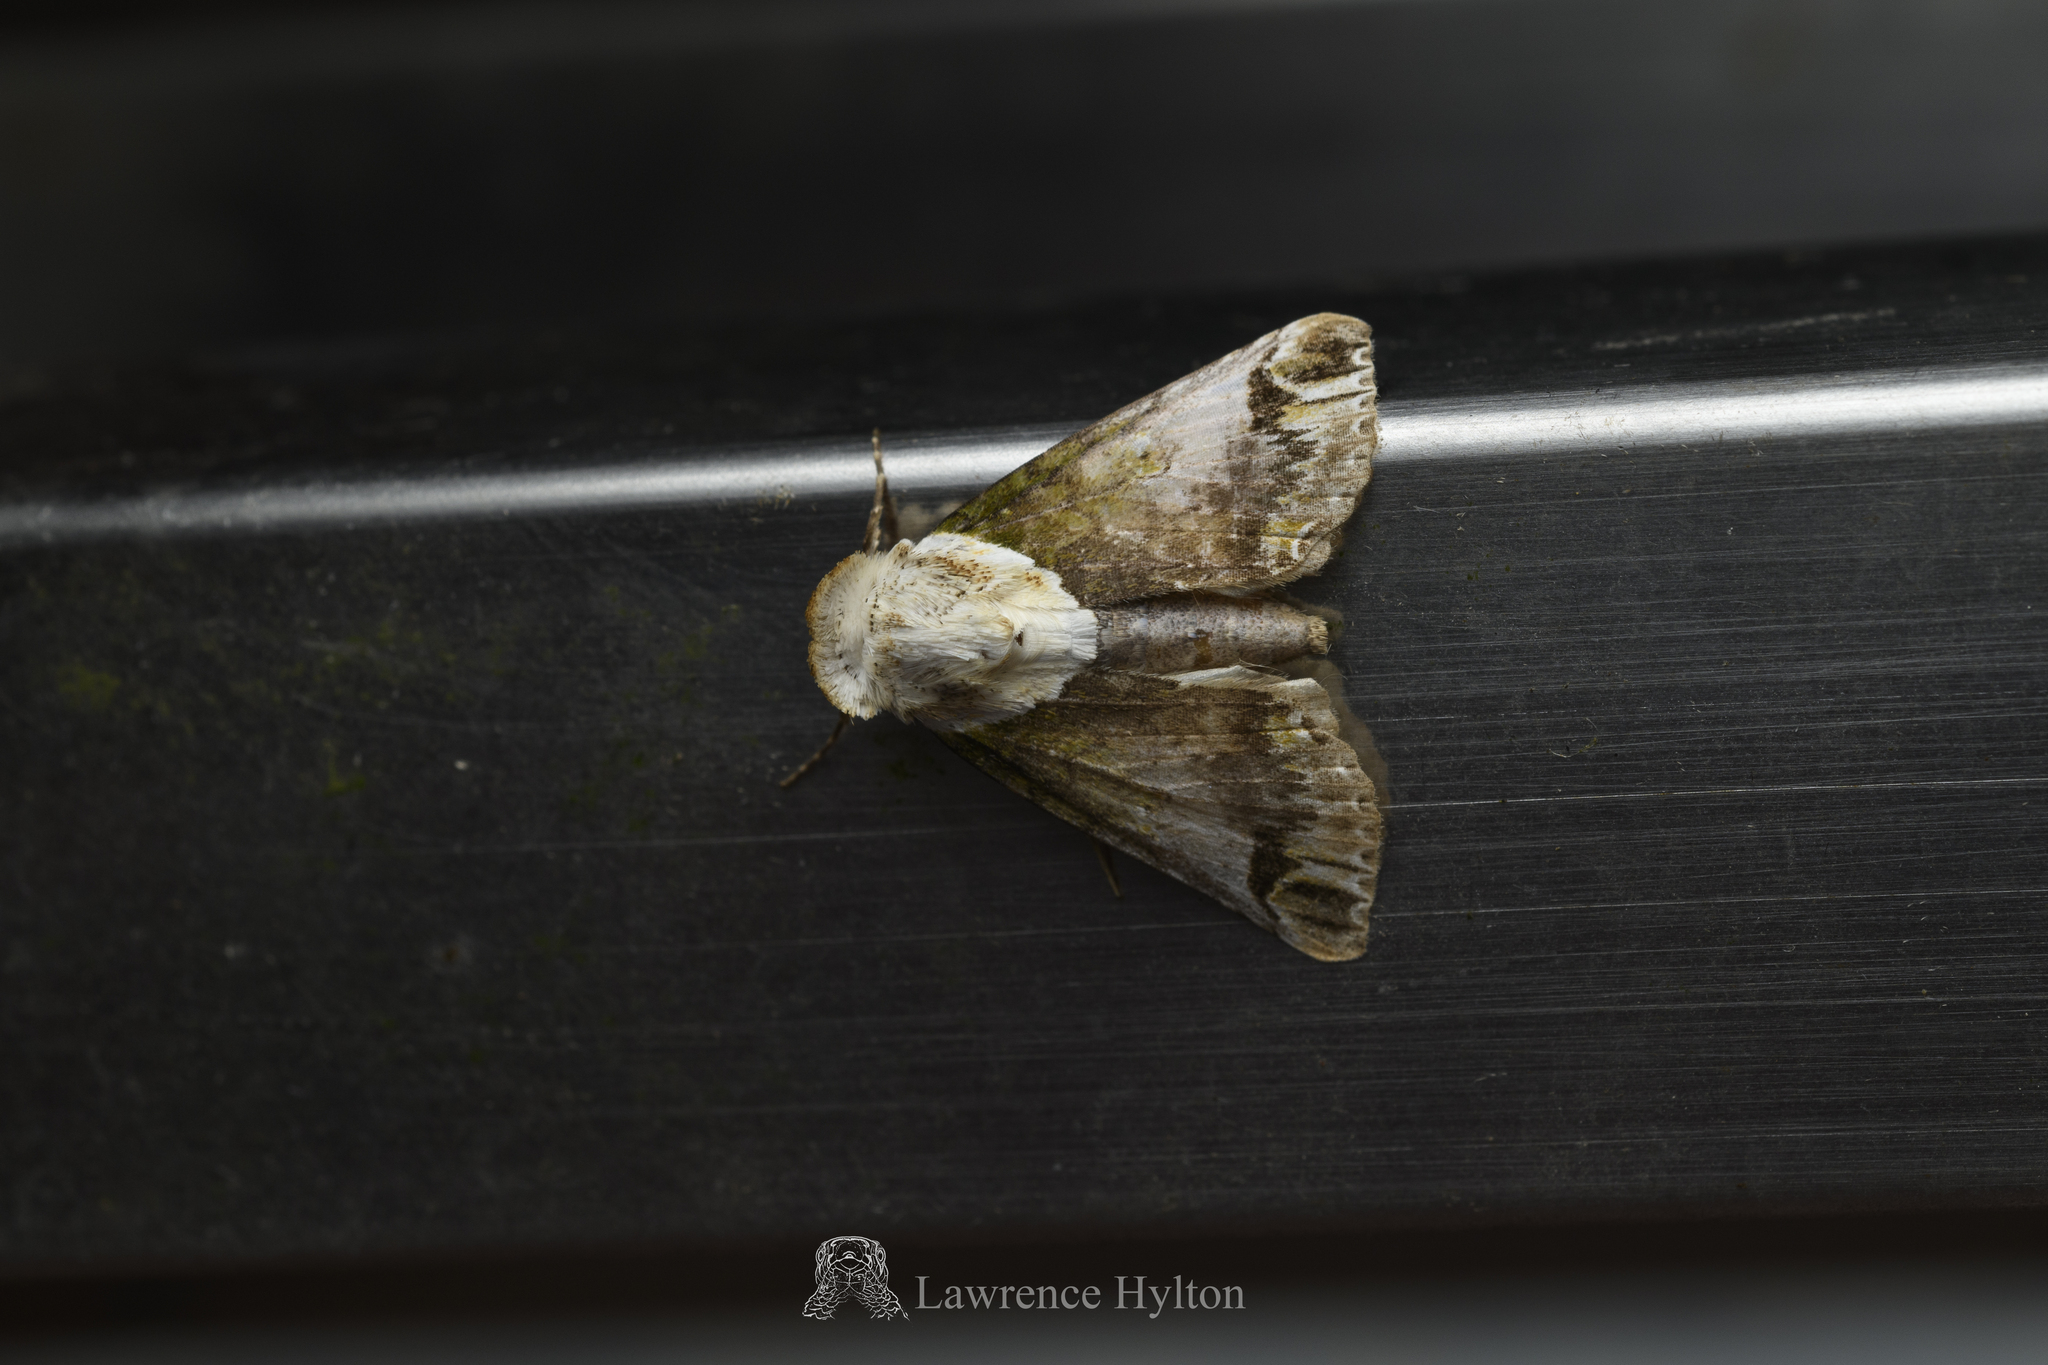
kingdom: Animalia
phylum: Arthropoda
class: Insecta
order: Lepidoptera
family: Nolidae
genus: Risoba
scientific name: Risoba prominens
